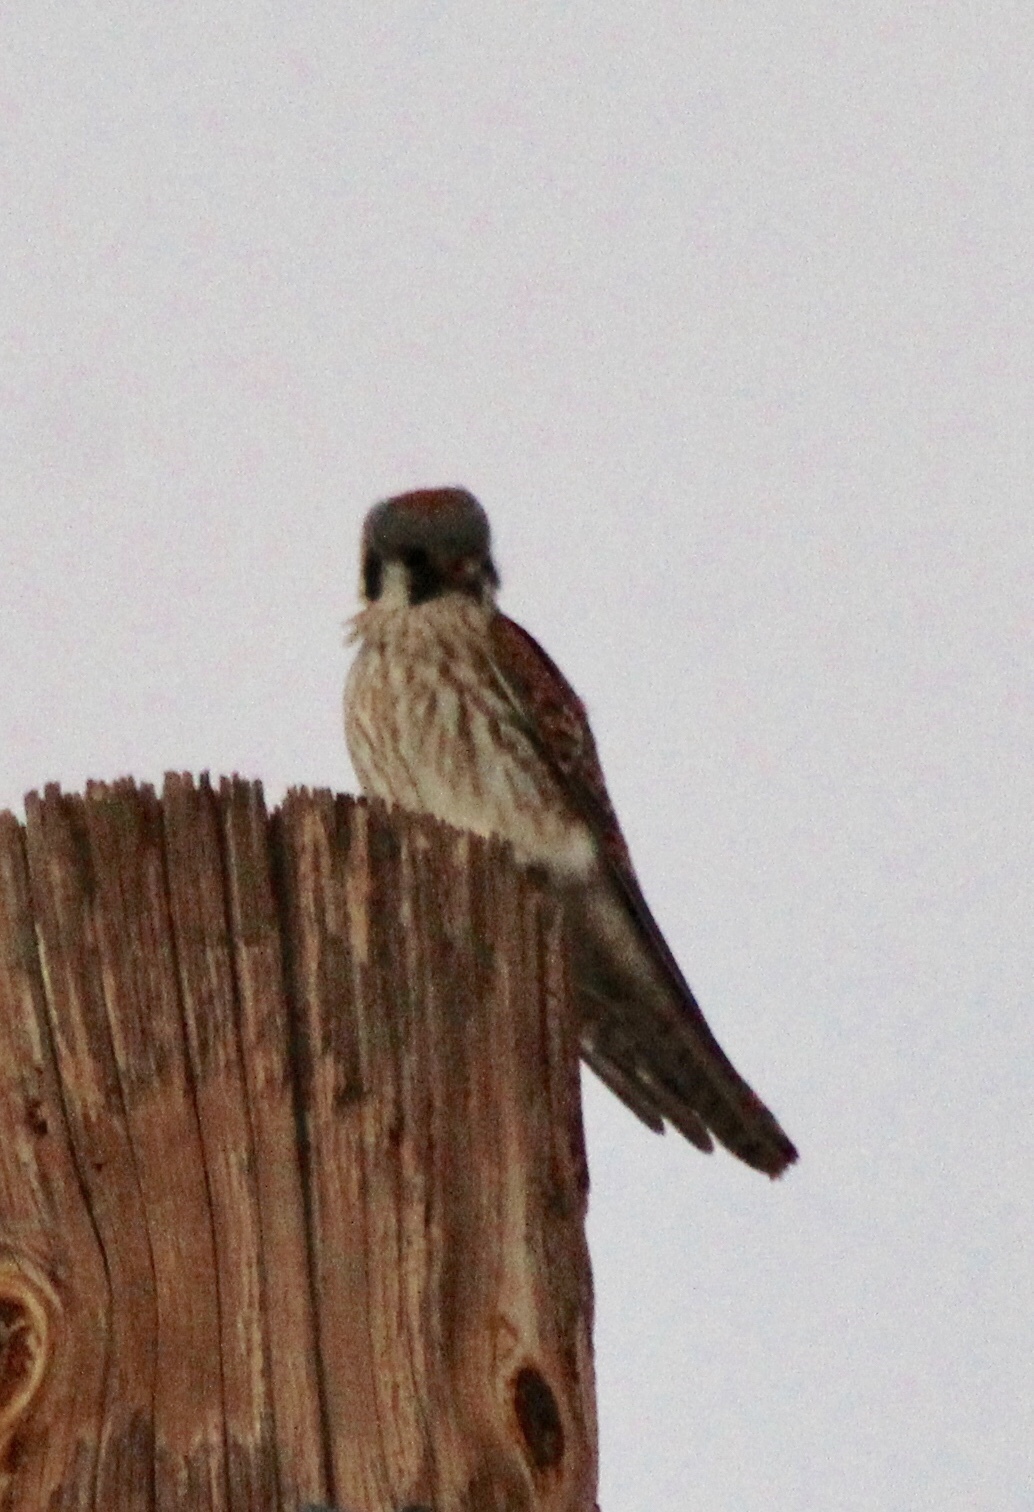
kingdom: Animalia
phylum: Chordata
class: Aves
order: Falconiformes
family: Falconidae
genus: Falco
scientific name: Falco sparverius
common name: American kestrel
